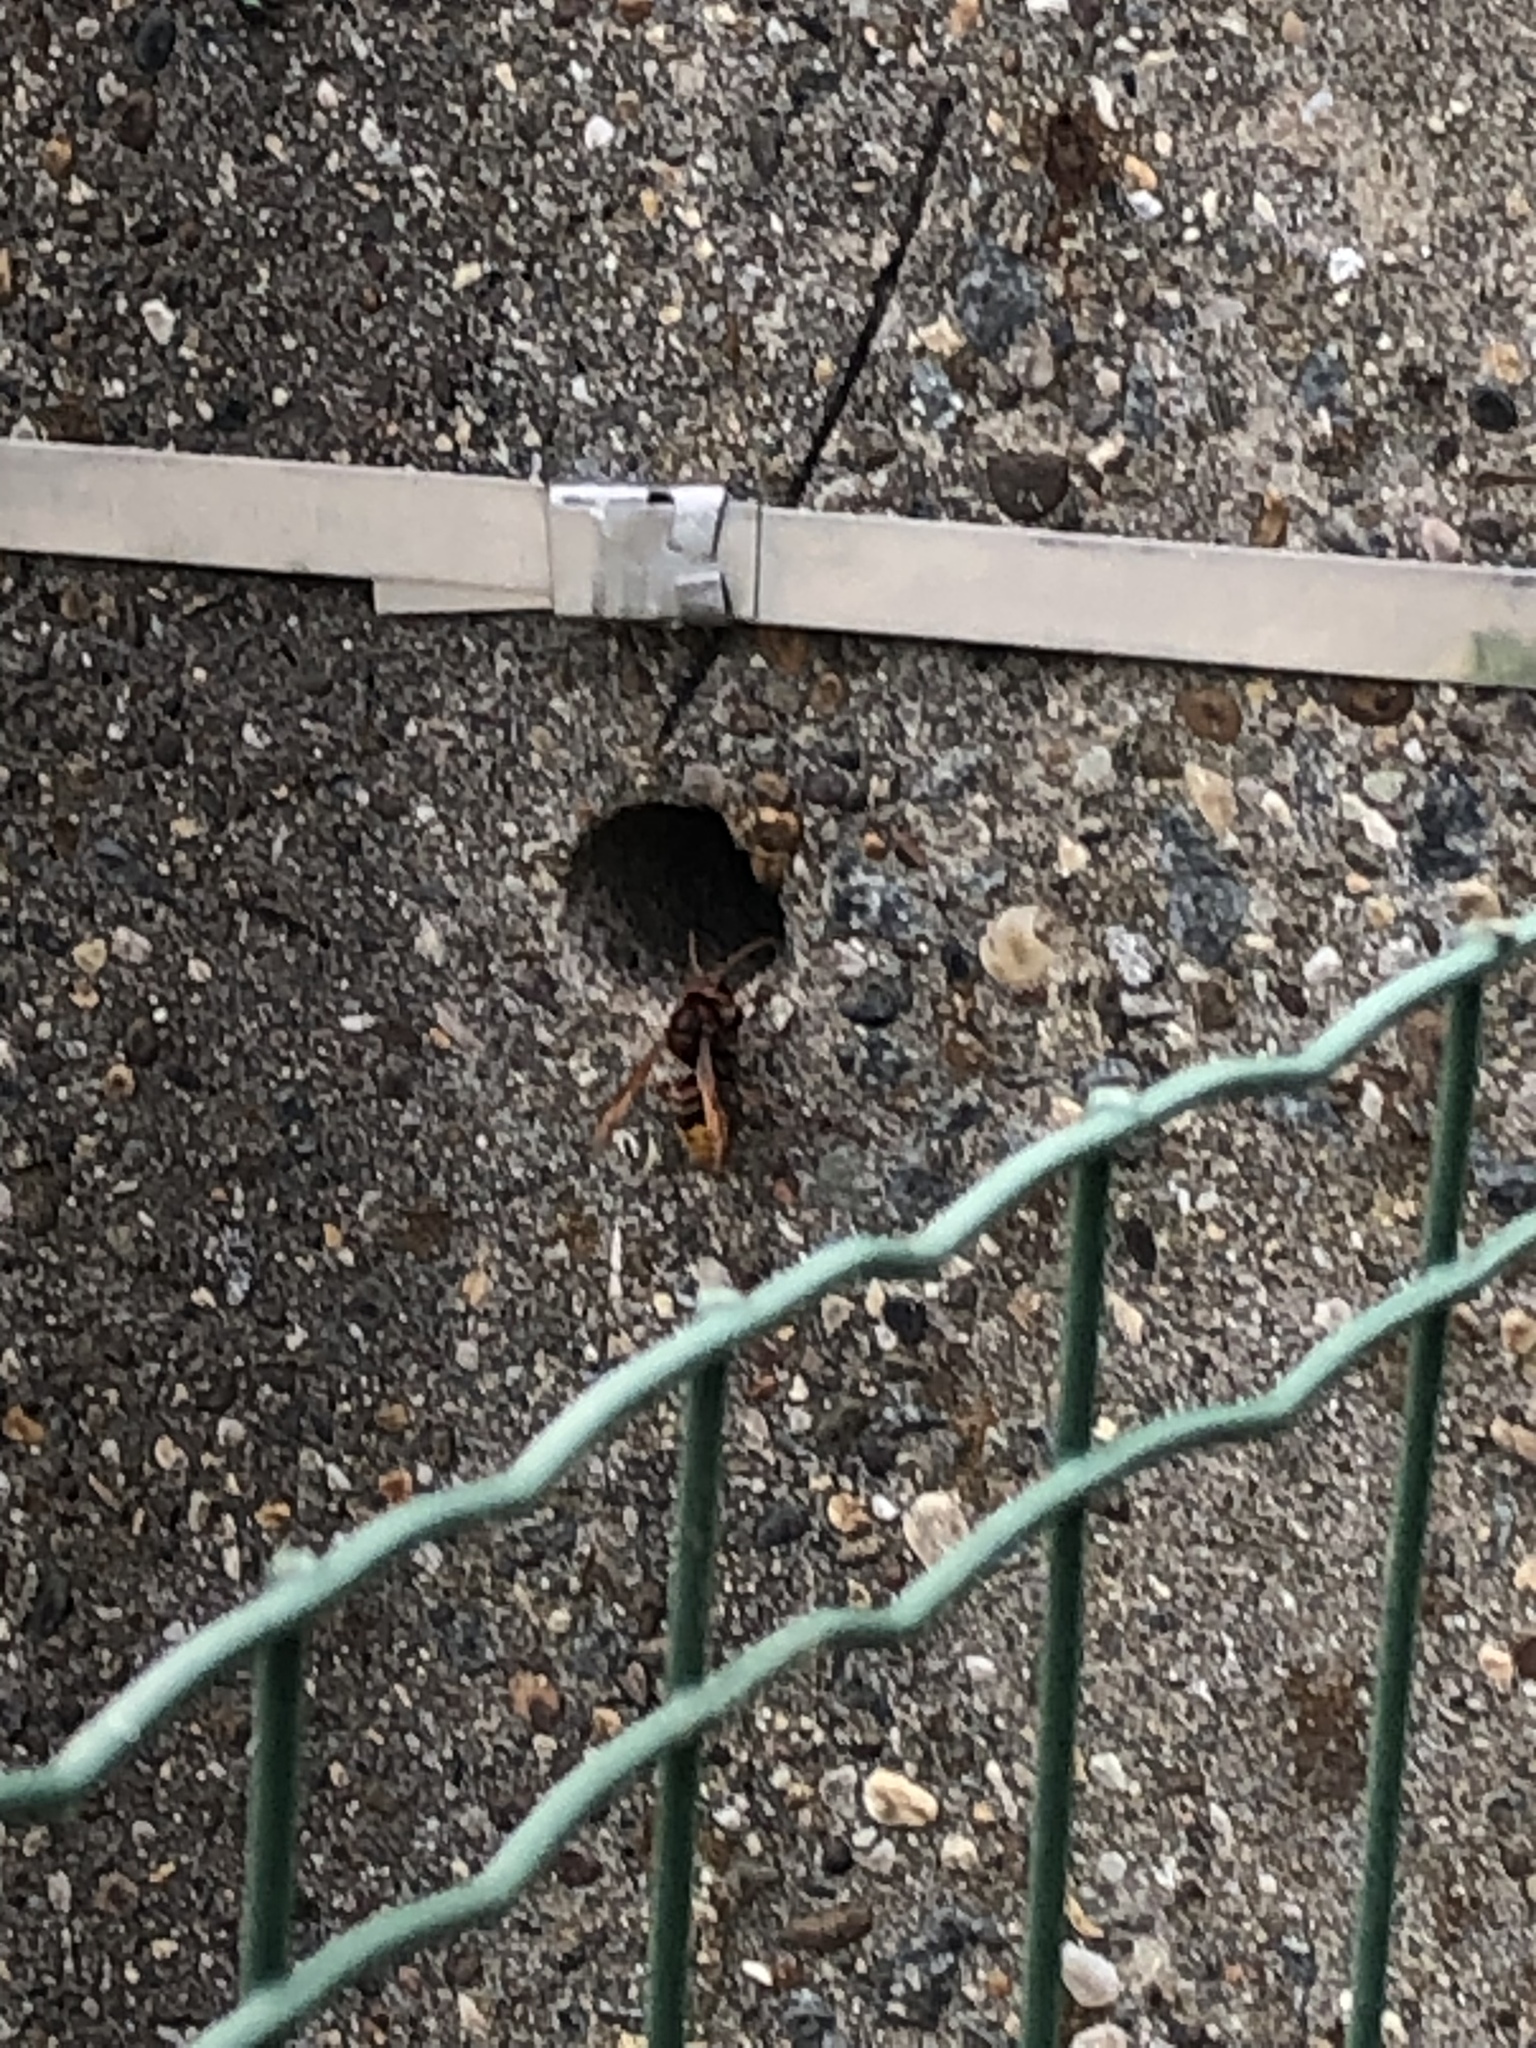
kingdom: Animalia
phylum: Arthropoda
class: Insecta
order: Hymenoptera
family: Vespidae
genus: Vespa
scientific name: Vespa crabro
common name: Hornet
